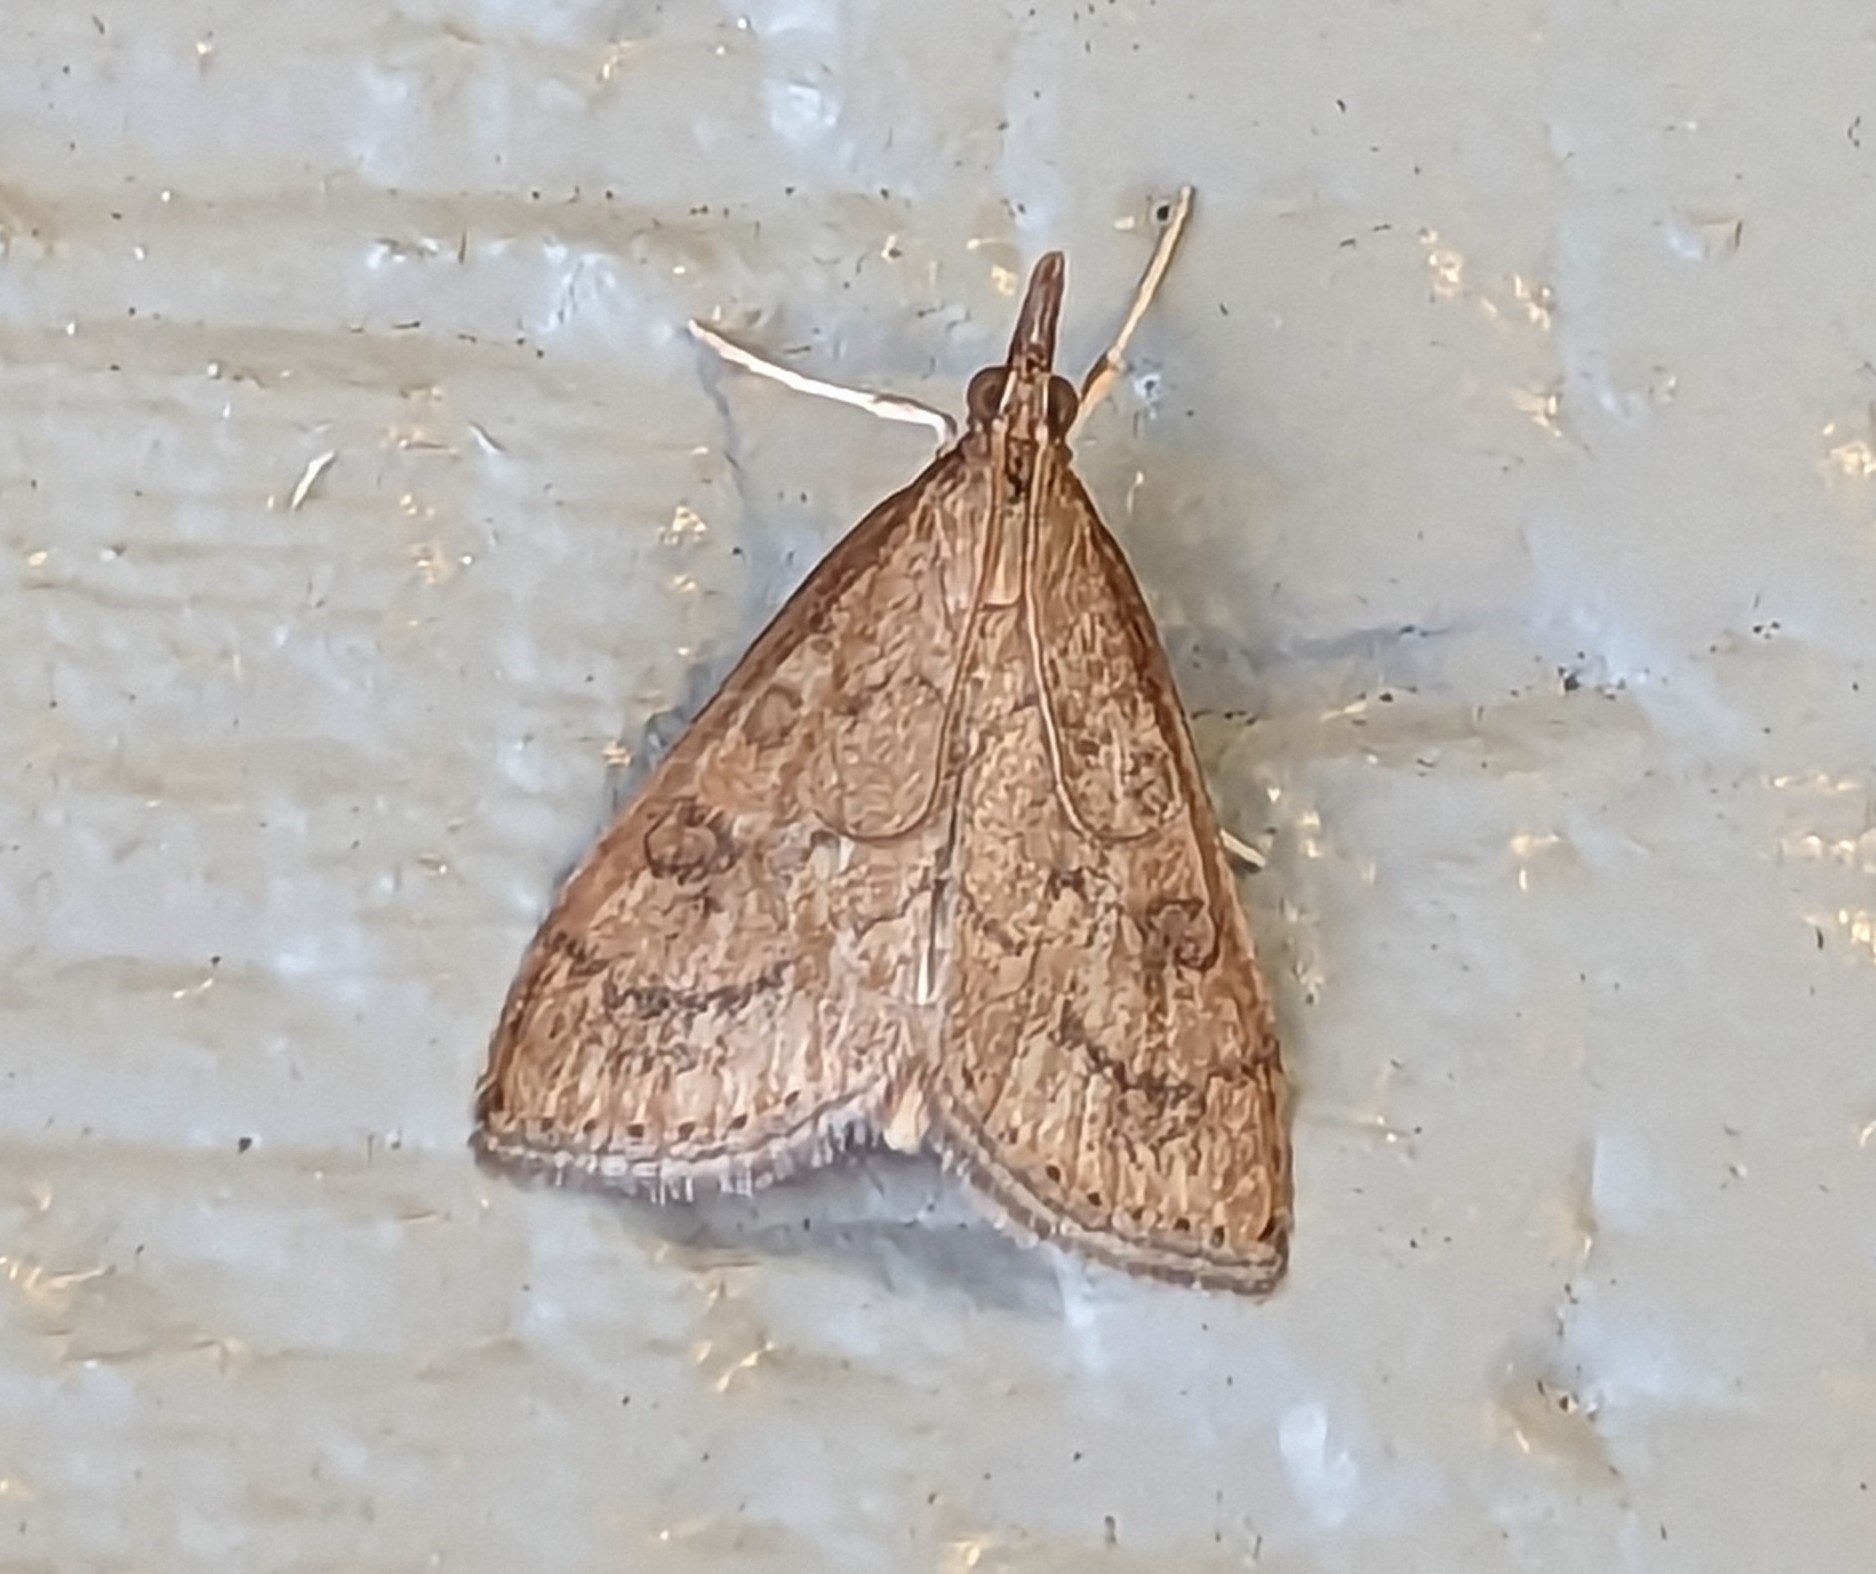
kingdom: Animalia
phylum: Arthropoda
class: Insecta
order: Lepidoptera
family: Crambidae
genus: Udea
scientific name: Udea rubigalis
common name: Celery leaftier moth
